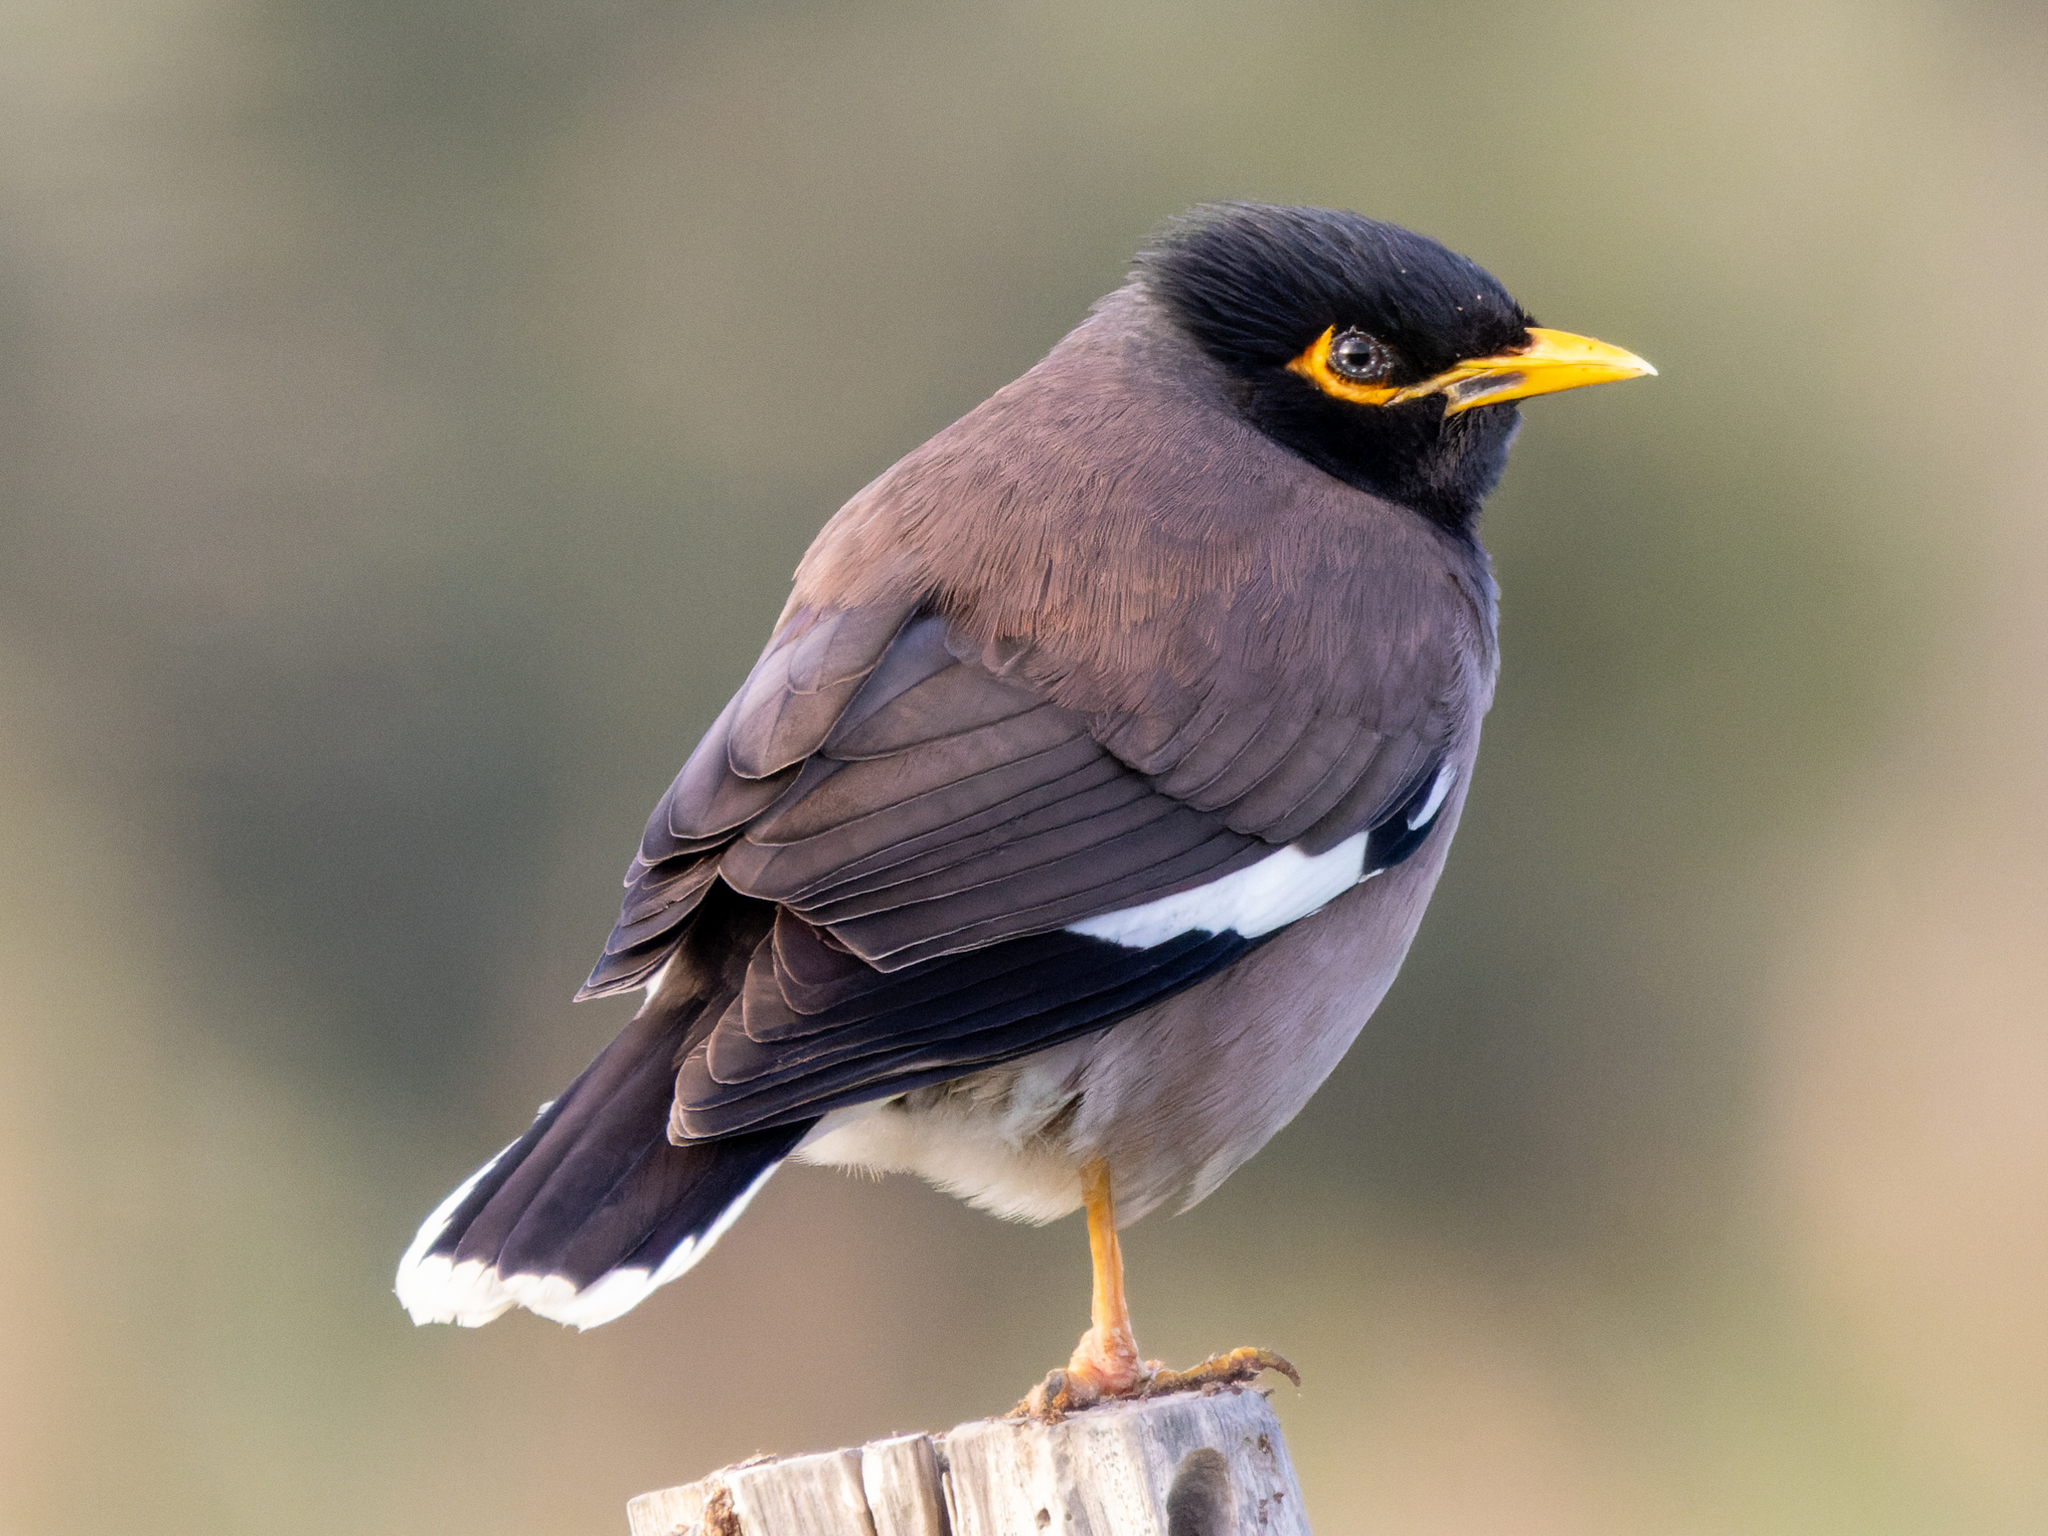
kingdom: Animalia
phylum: Chordata
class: Aves
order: Passeriformes
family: Sturnidae
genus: Acridotheres
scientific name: Acridotheres tristis
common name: Common myna
